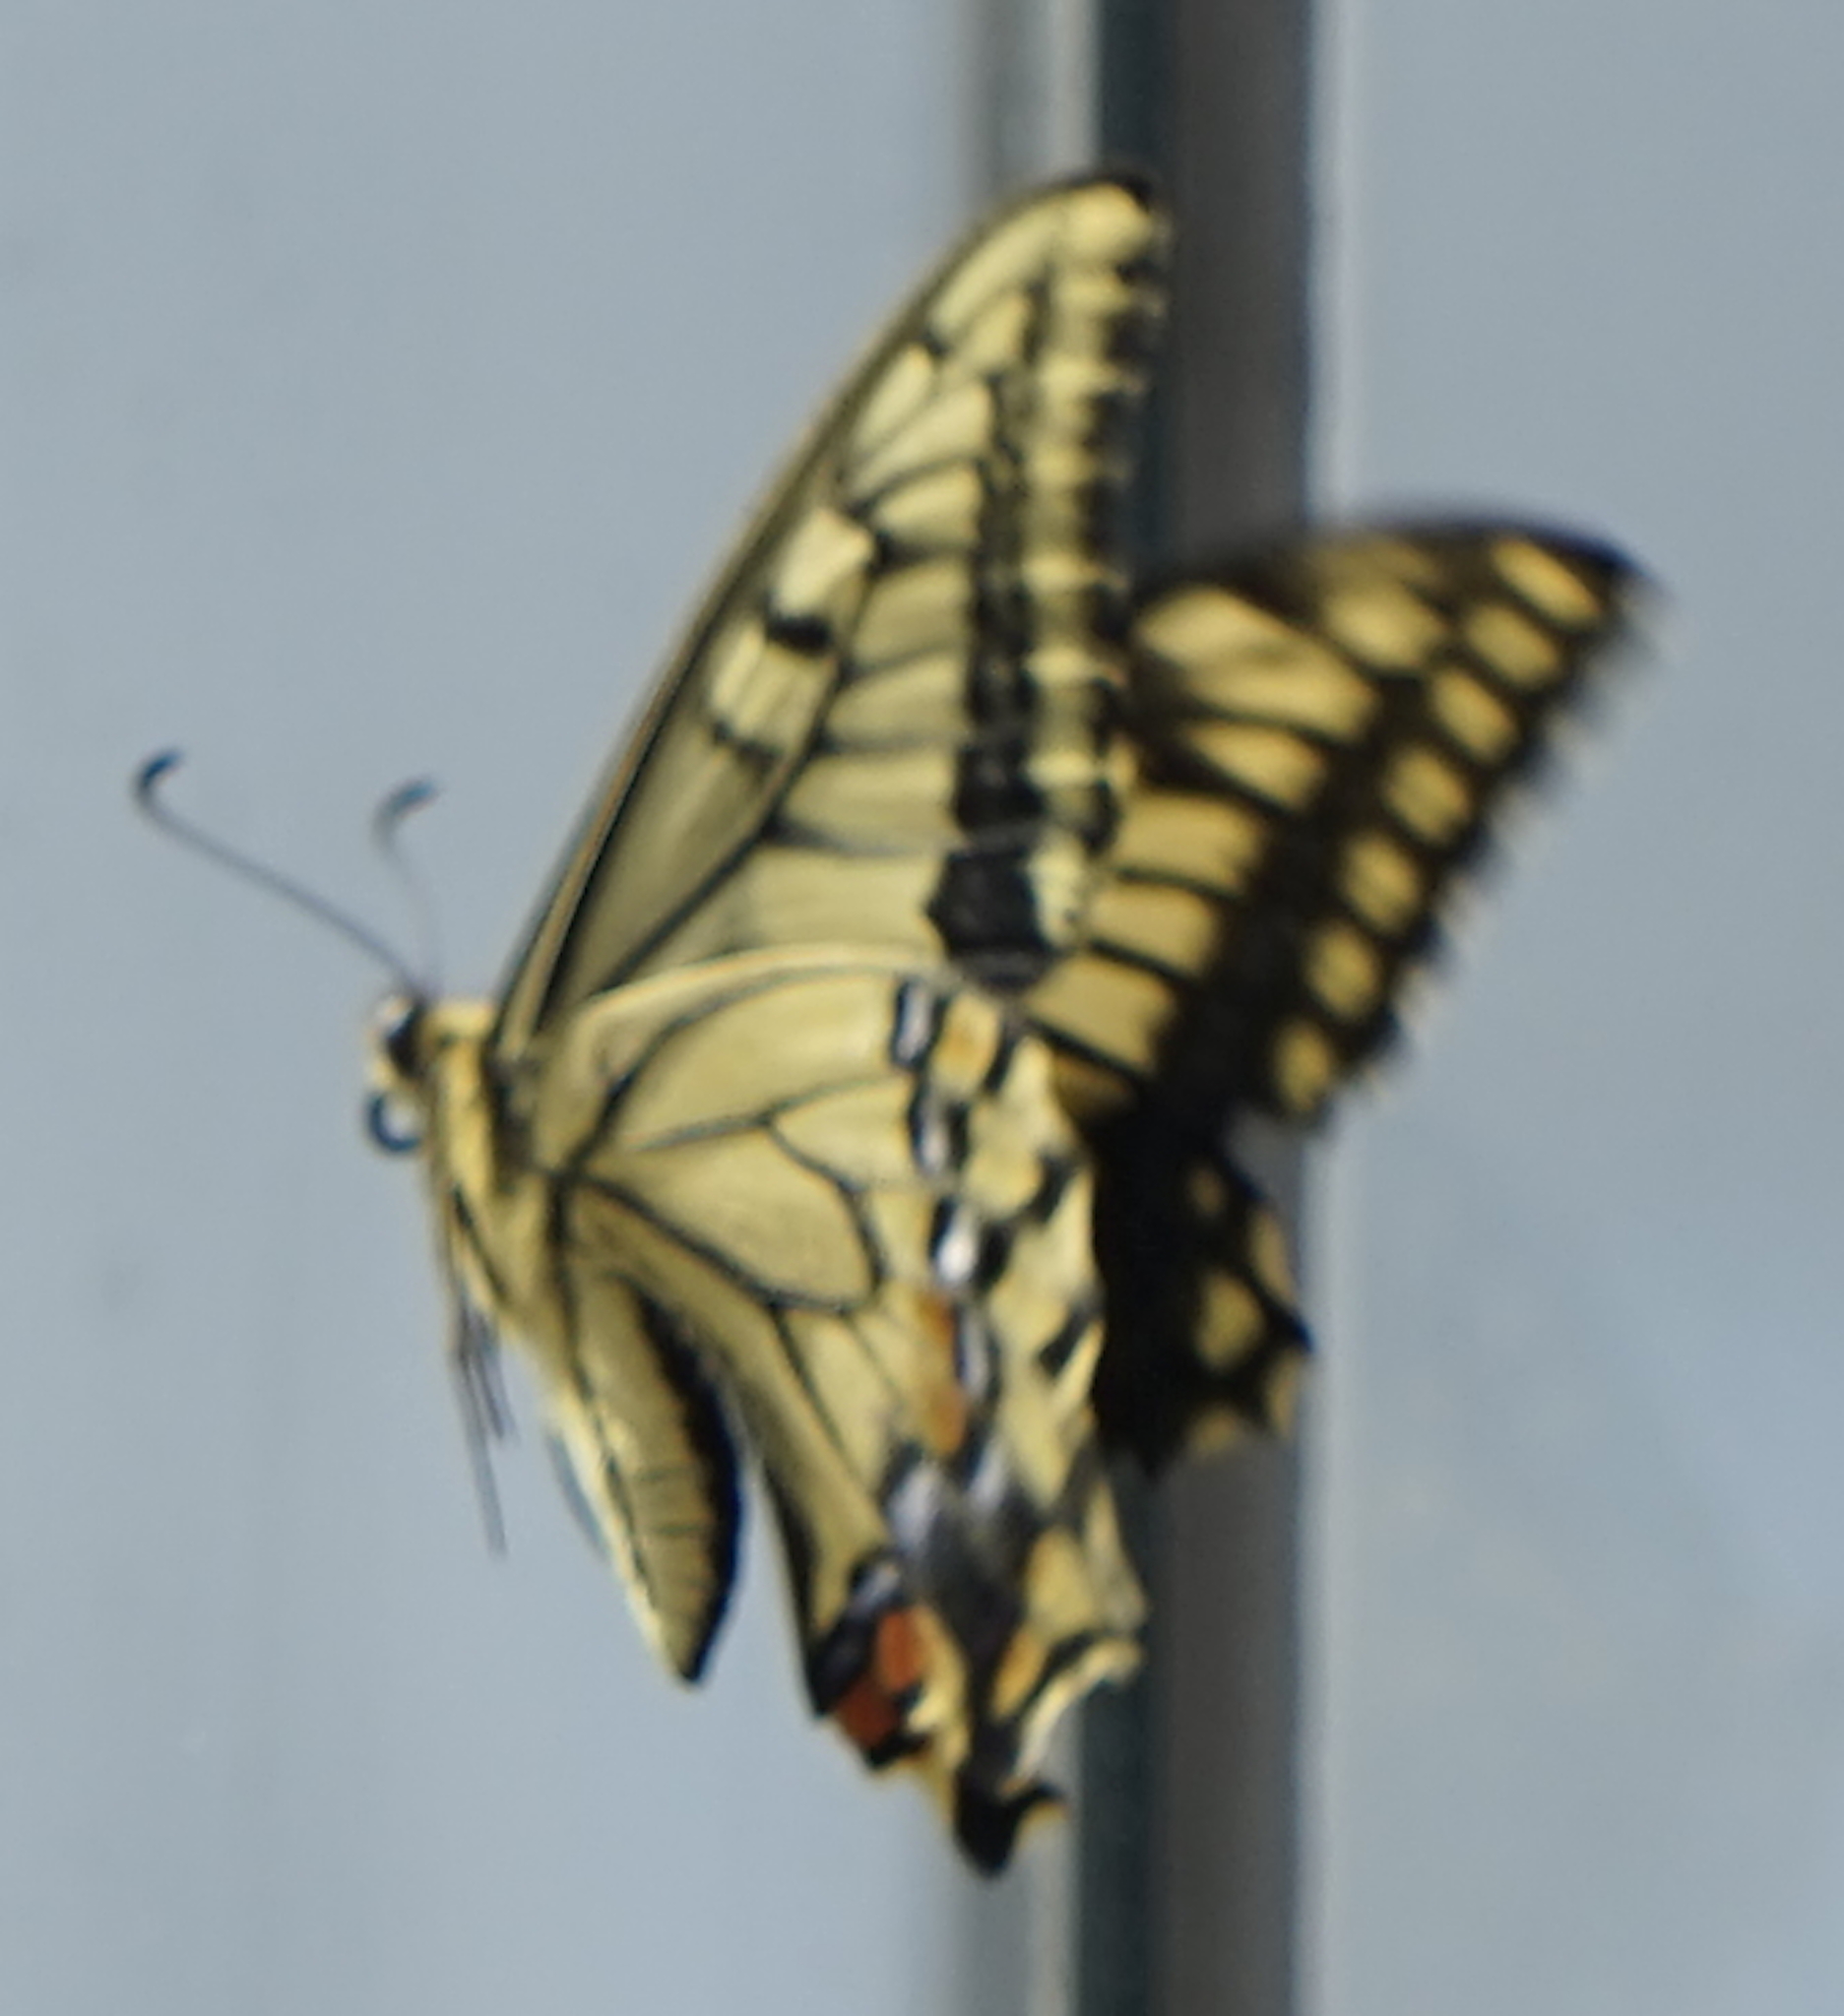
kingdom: Animalia
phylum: Arthropoda
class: Insecta
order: Lepidoptera
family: Papilionidae
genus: Papilio
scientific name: Papilio machaon
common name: Swallowtail
